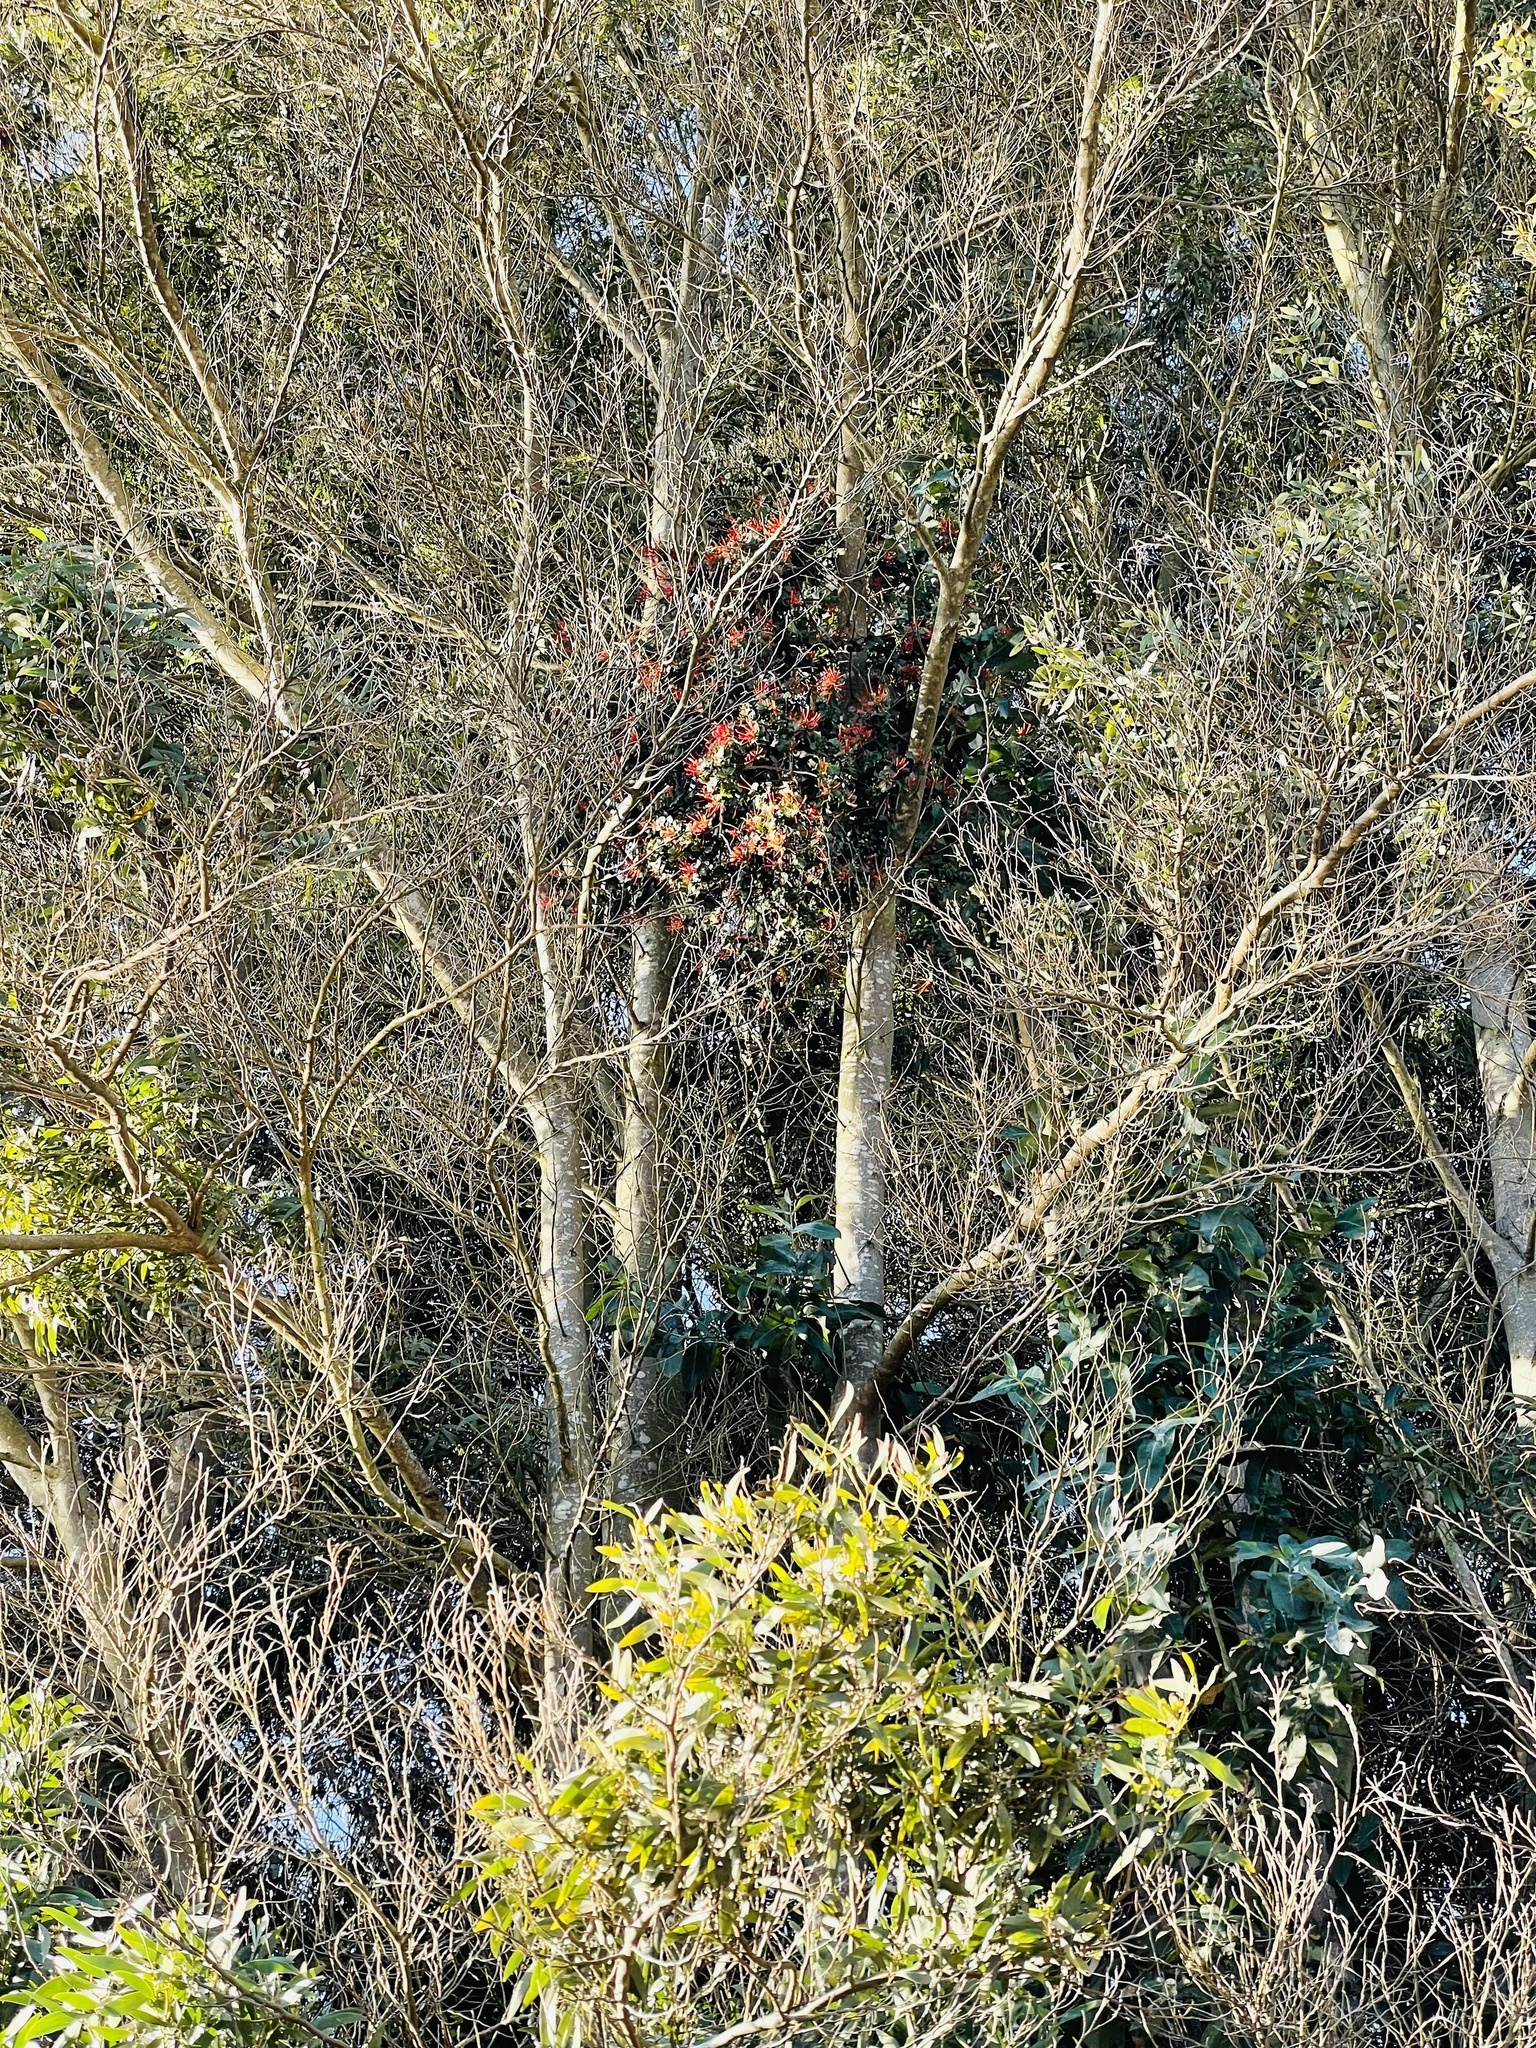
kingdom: Plantae
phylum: Tracheophyta
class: Magnoliopsida
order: Santalales
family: Loranthaceae
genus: Tristerix
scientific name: Tristerix corymbosus
